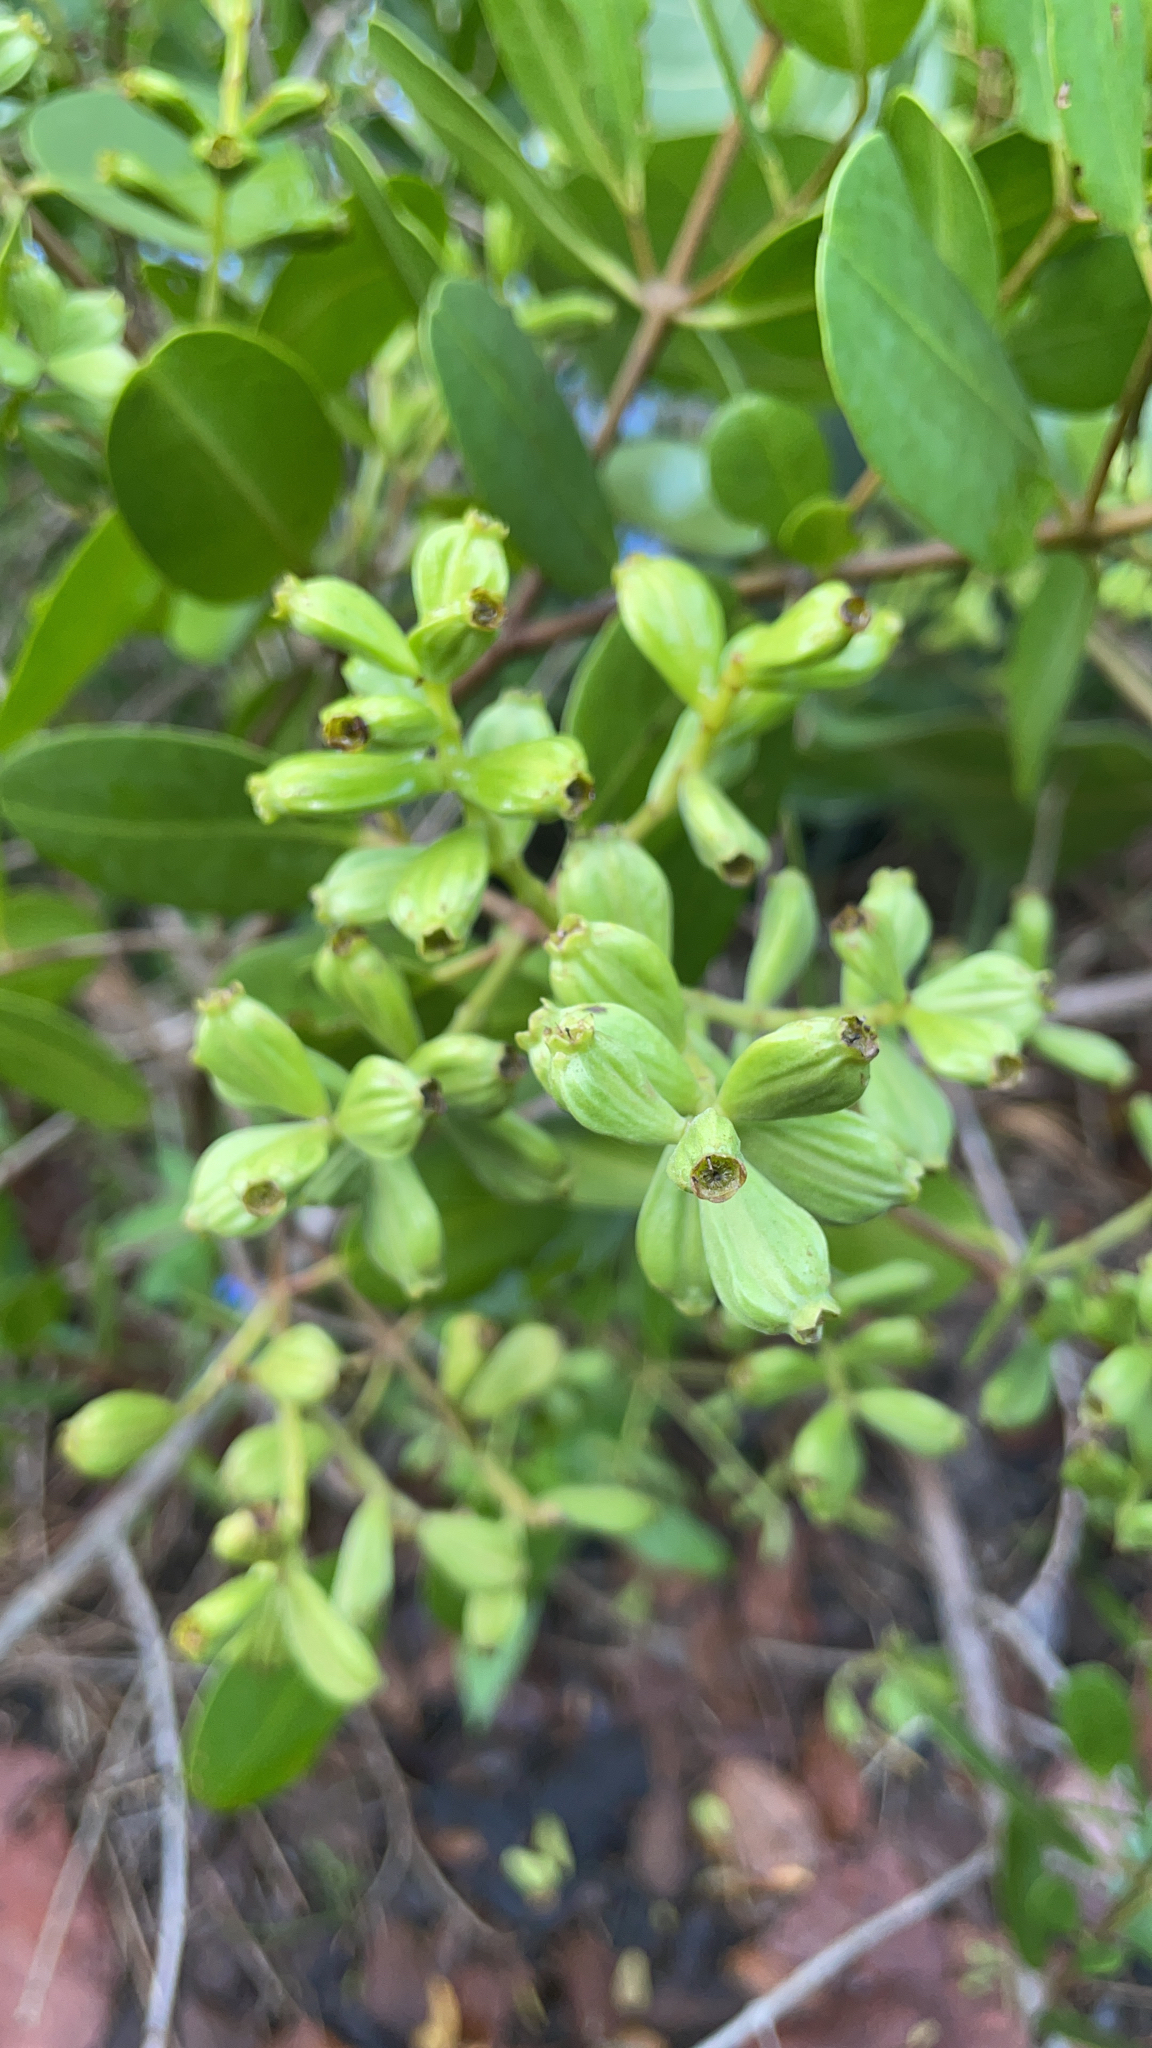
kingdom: Plantae
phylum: Tracheophyta
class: Magnoliopsida
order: Myrtales
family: Combretaceae
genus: Laguncularia
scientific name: Laguncularia racemosa
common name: White mangrove
